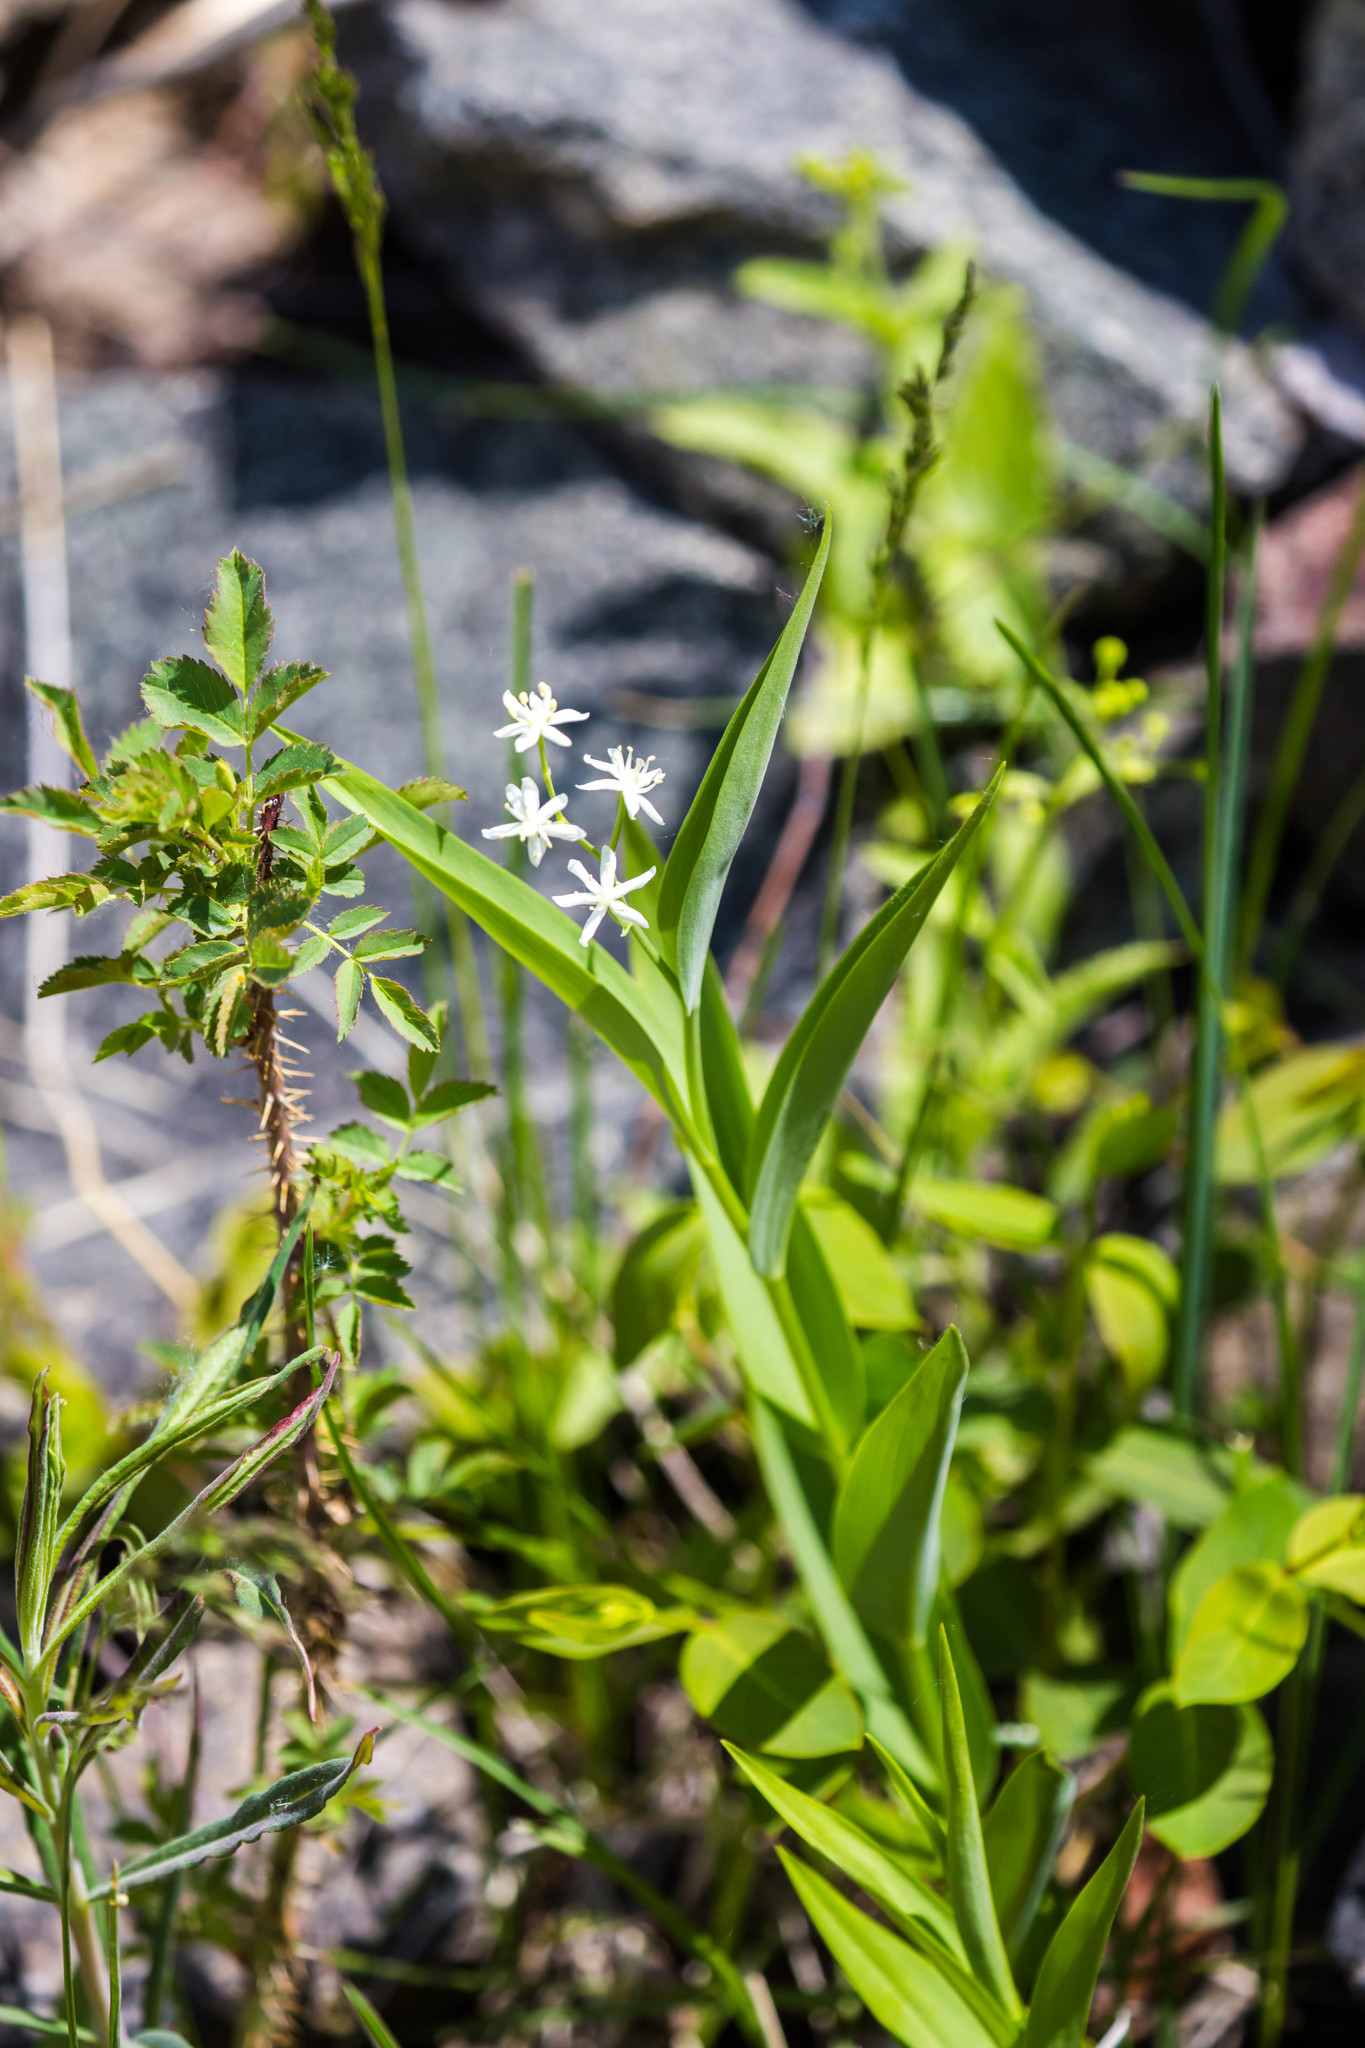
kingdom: Plantae
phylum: Tracheophyta
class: Liliopsida
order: Asparagales
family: Asparagaceae
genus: Maianthemum
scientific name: Maianthemum stellatum
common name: Little false solomon's seal
